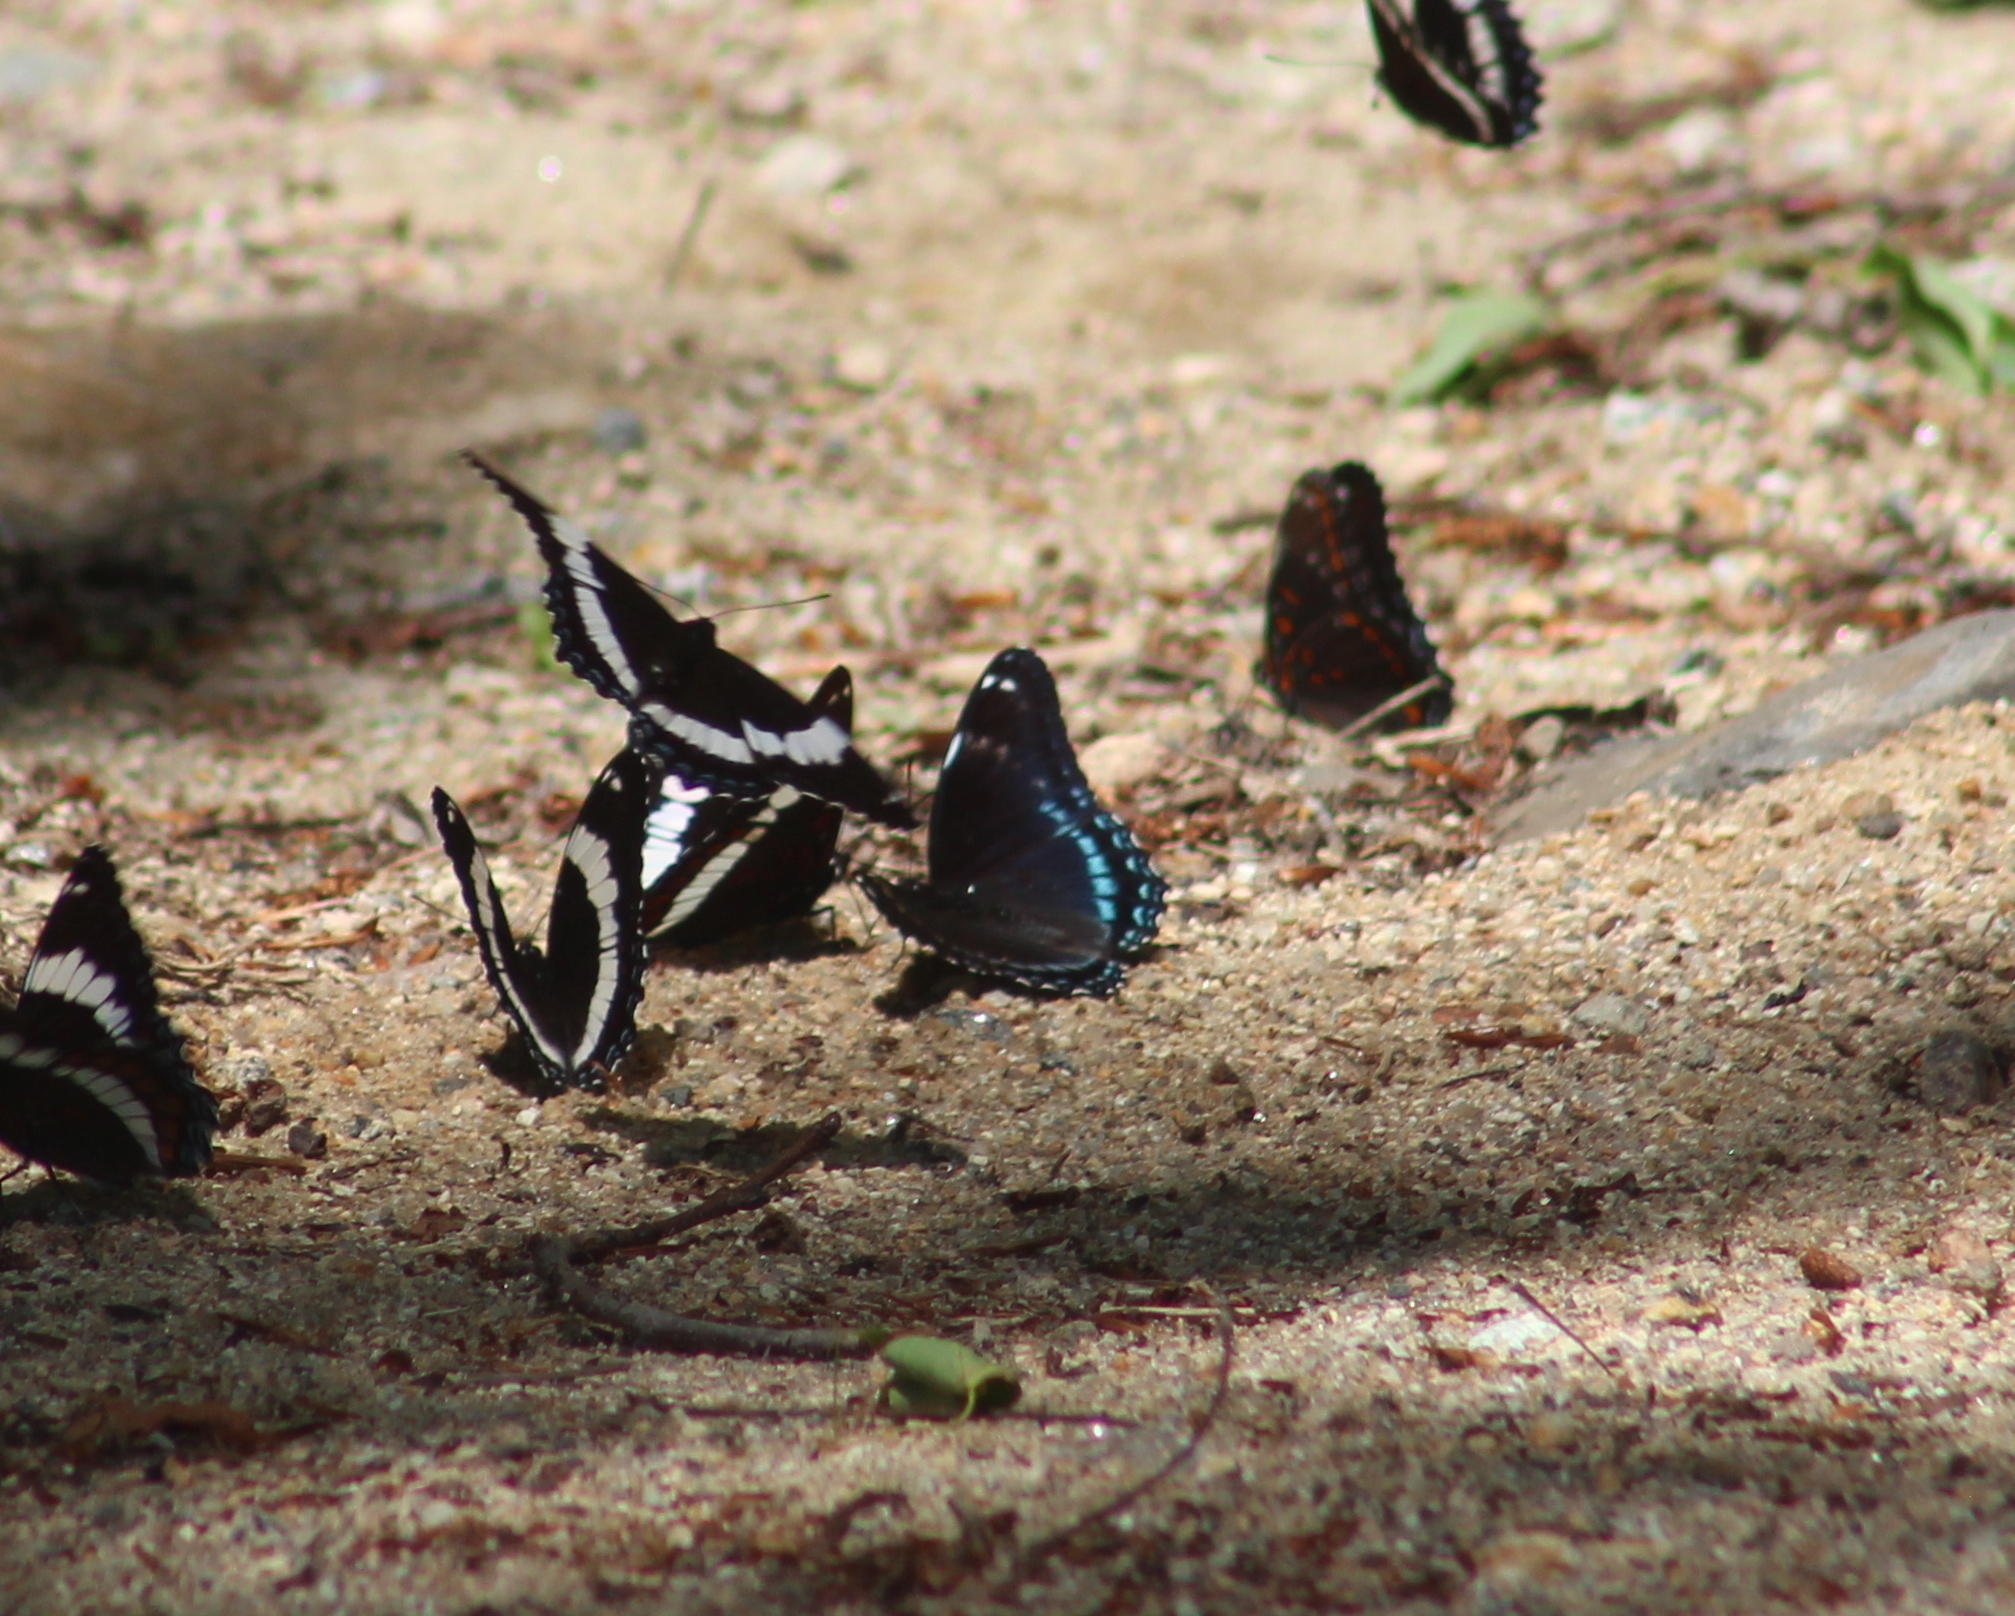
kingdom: Animalia
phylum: Arthropoda
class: Insecta
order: Lepidoptera
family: Nymphalidae
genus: Limenitis
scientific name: Limenitis arthemis
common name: Red-spotted admiral
